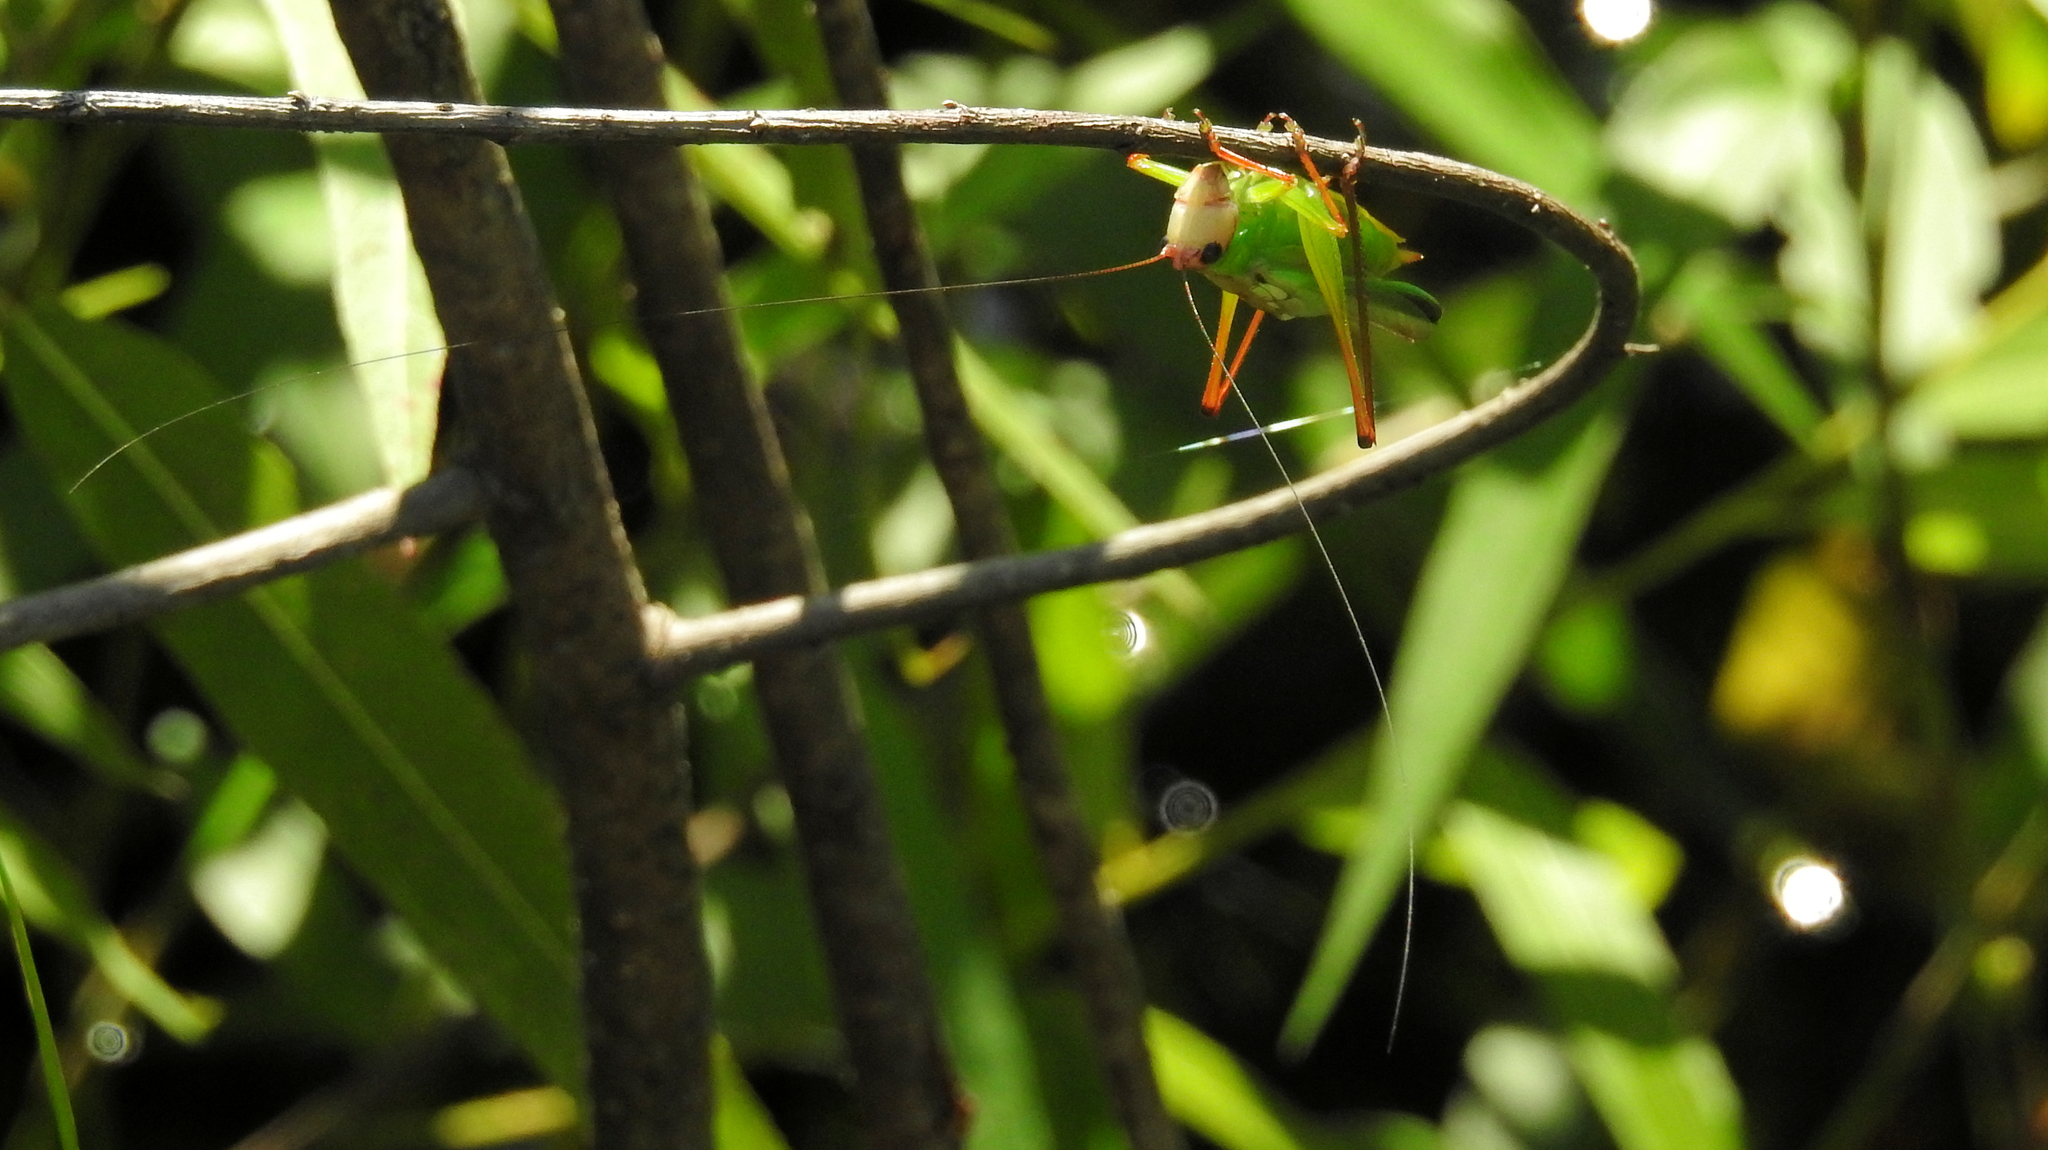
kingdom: Animalia
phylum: Arthropoda
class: Insecta
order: Orthoptera
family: Tettigoniidae
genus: Orchelimum
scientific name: Orchelimum pulchellum
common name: Handsome meadow katydid
